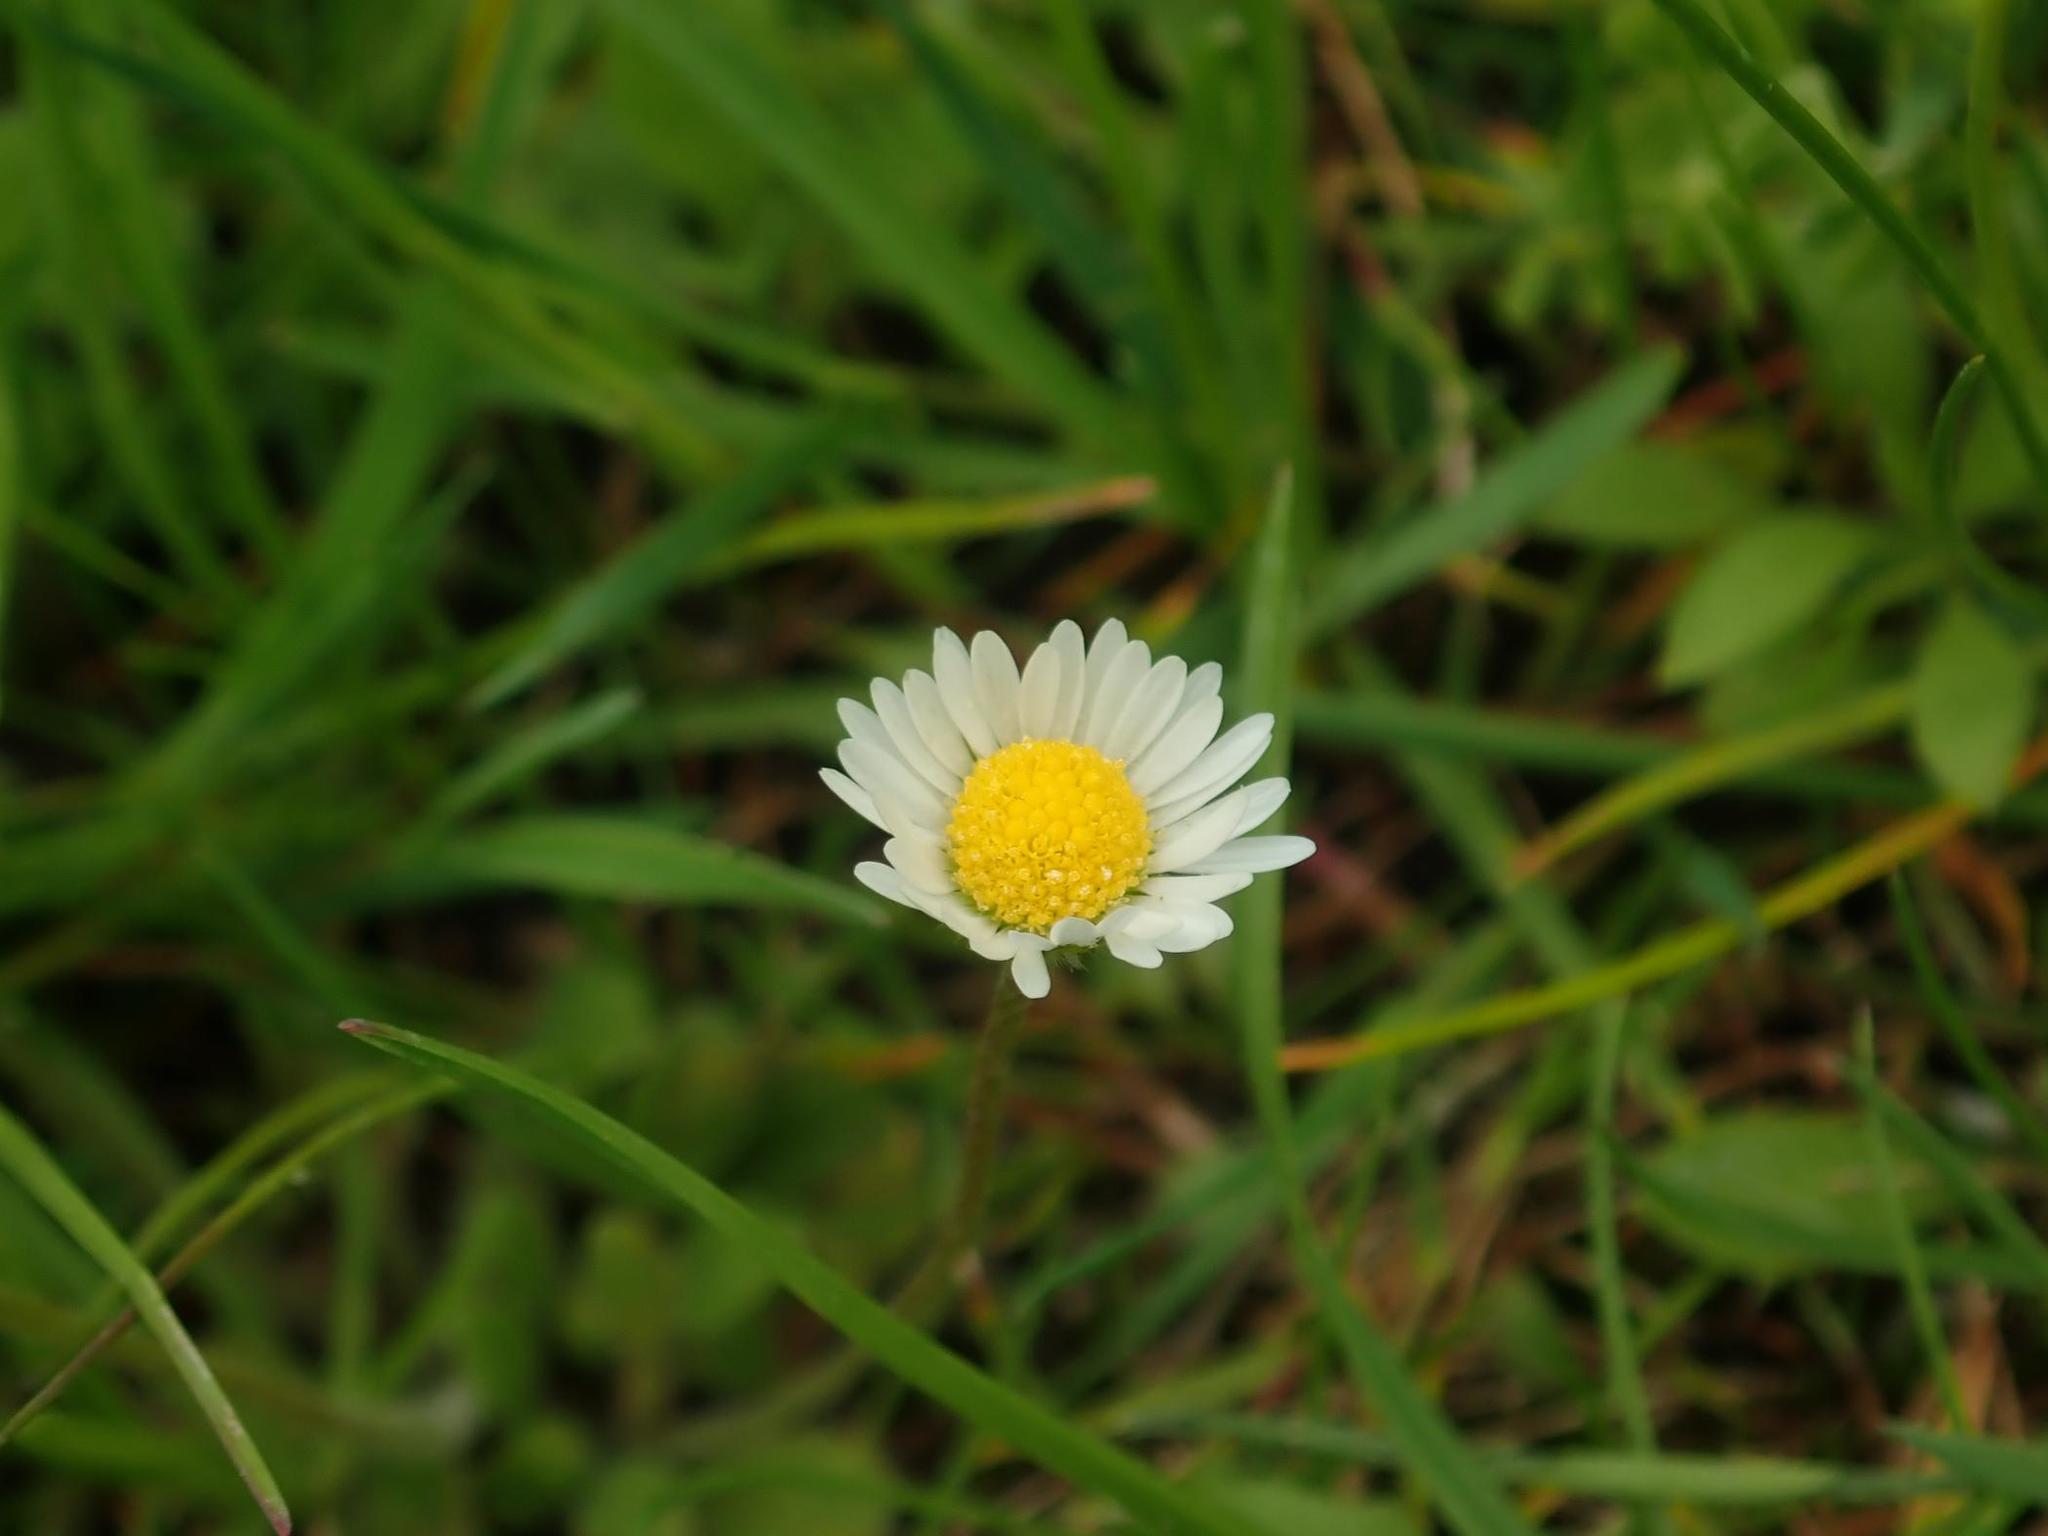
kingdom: Plantae
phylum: Tracheophyta
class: Magnoliopsida
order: Asterales
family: Asteraceae
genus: Bellis
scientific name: Bellis perennis
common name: Lawndaisy
